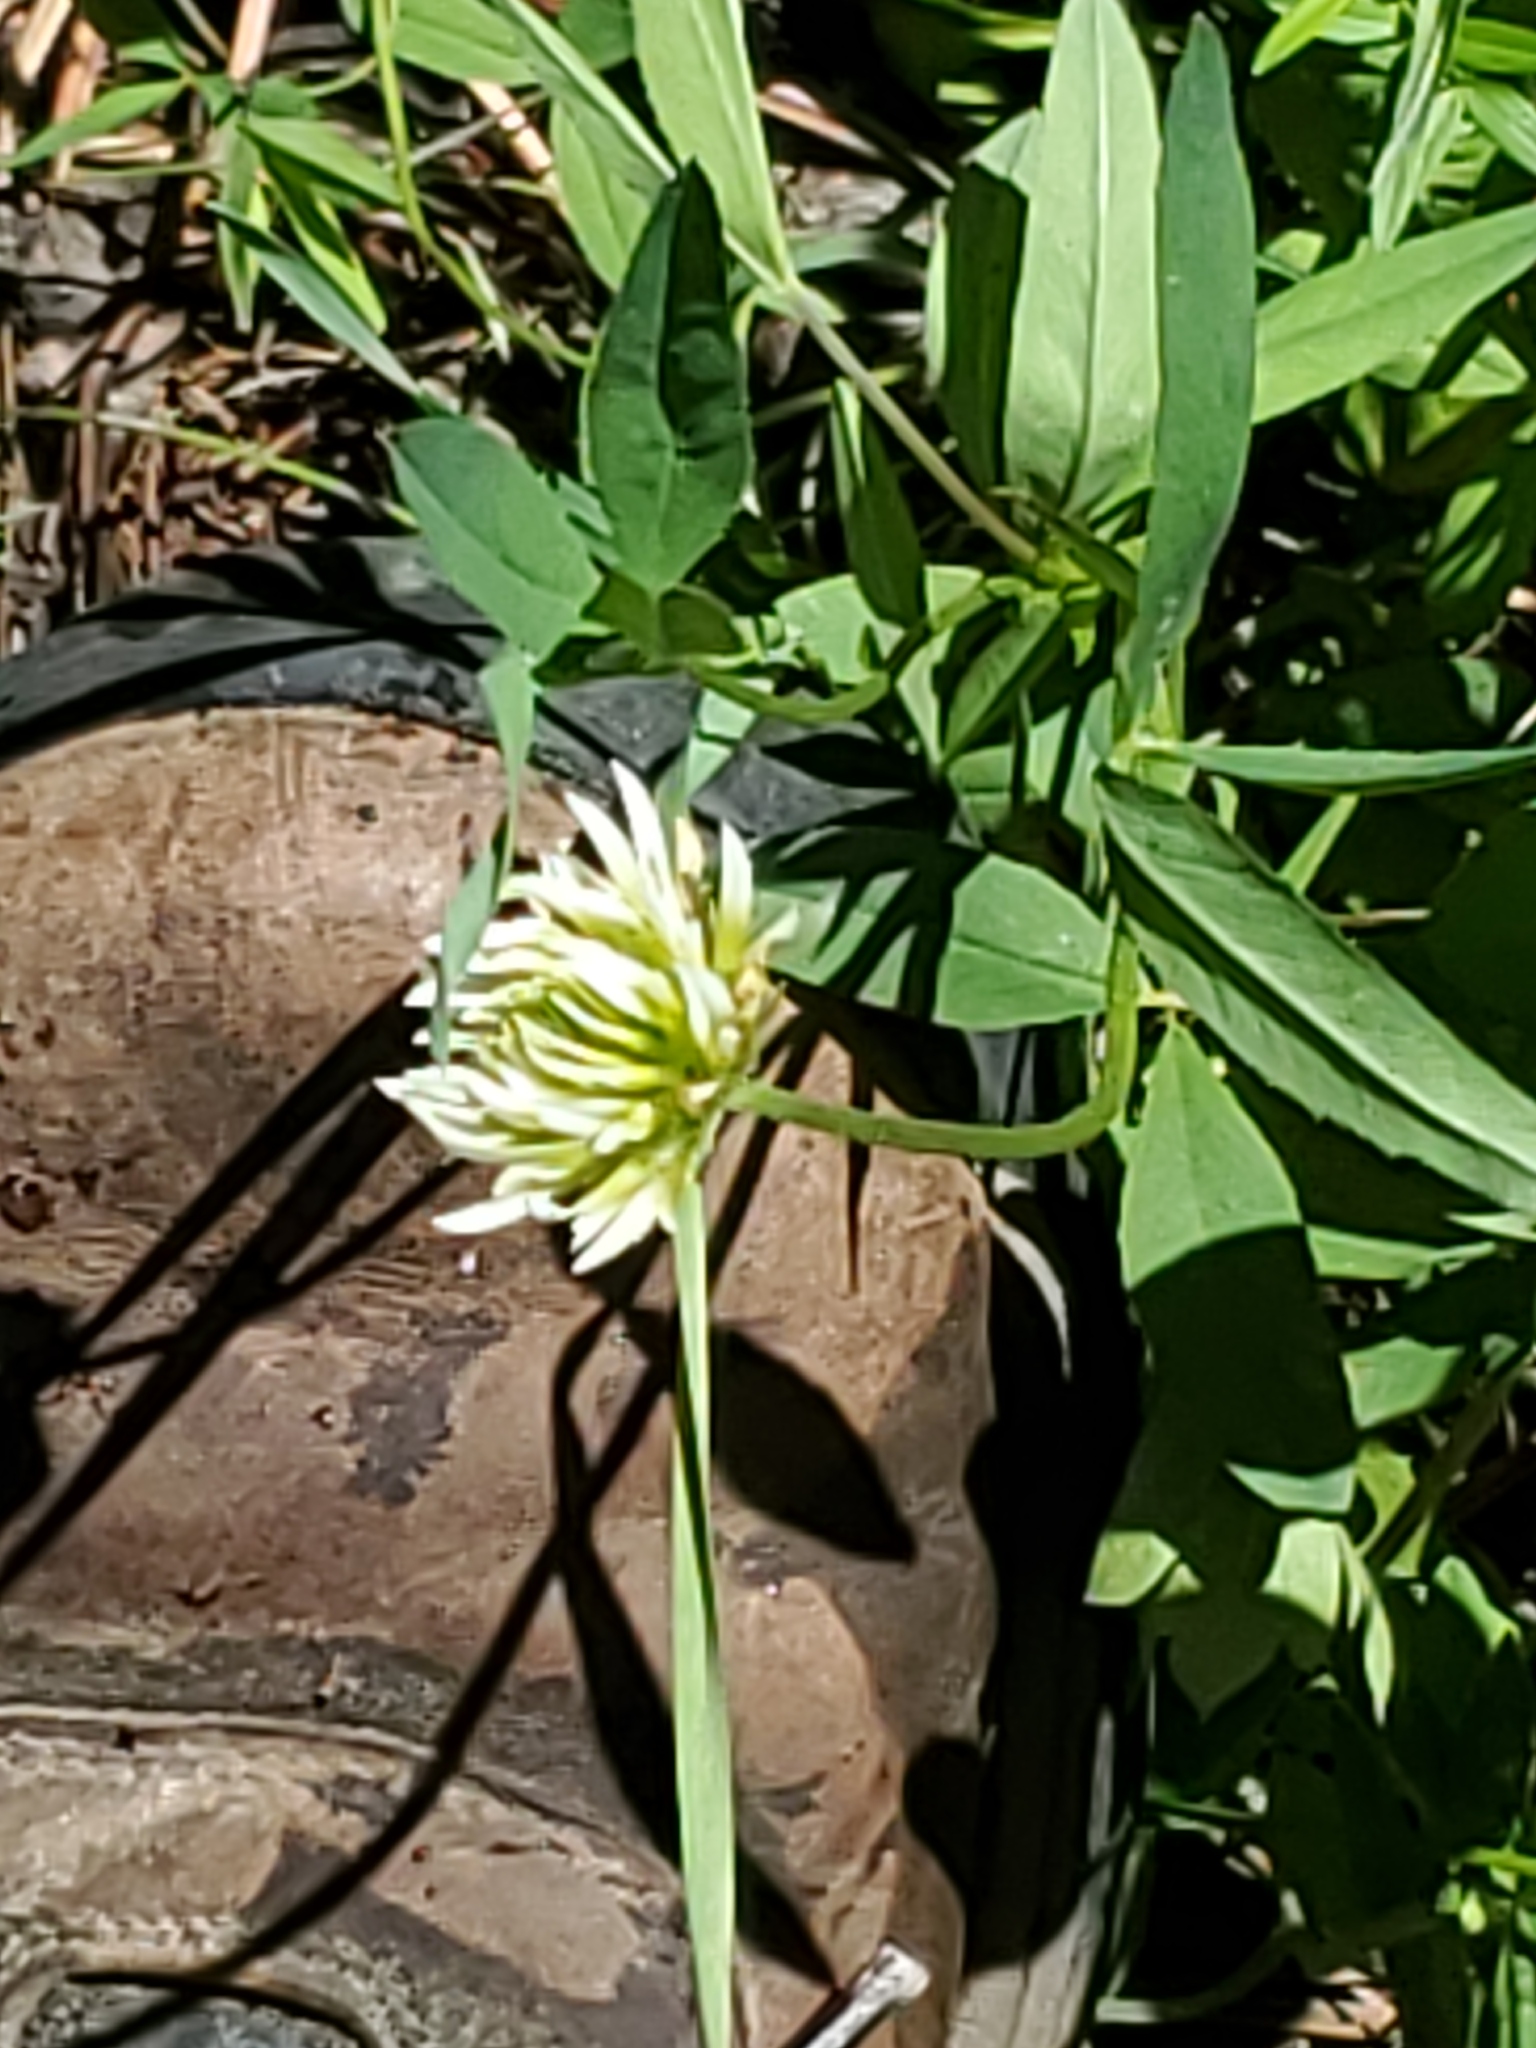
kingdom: Plantae
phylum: Tracheophyta
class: Magnoliopsida
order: Fabales
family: Fabaceae
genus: Trifolium
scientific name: Trifolium longipes
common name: Long-stalk clover
